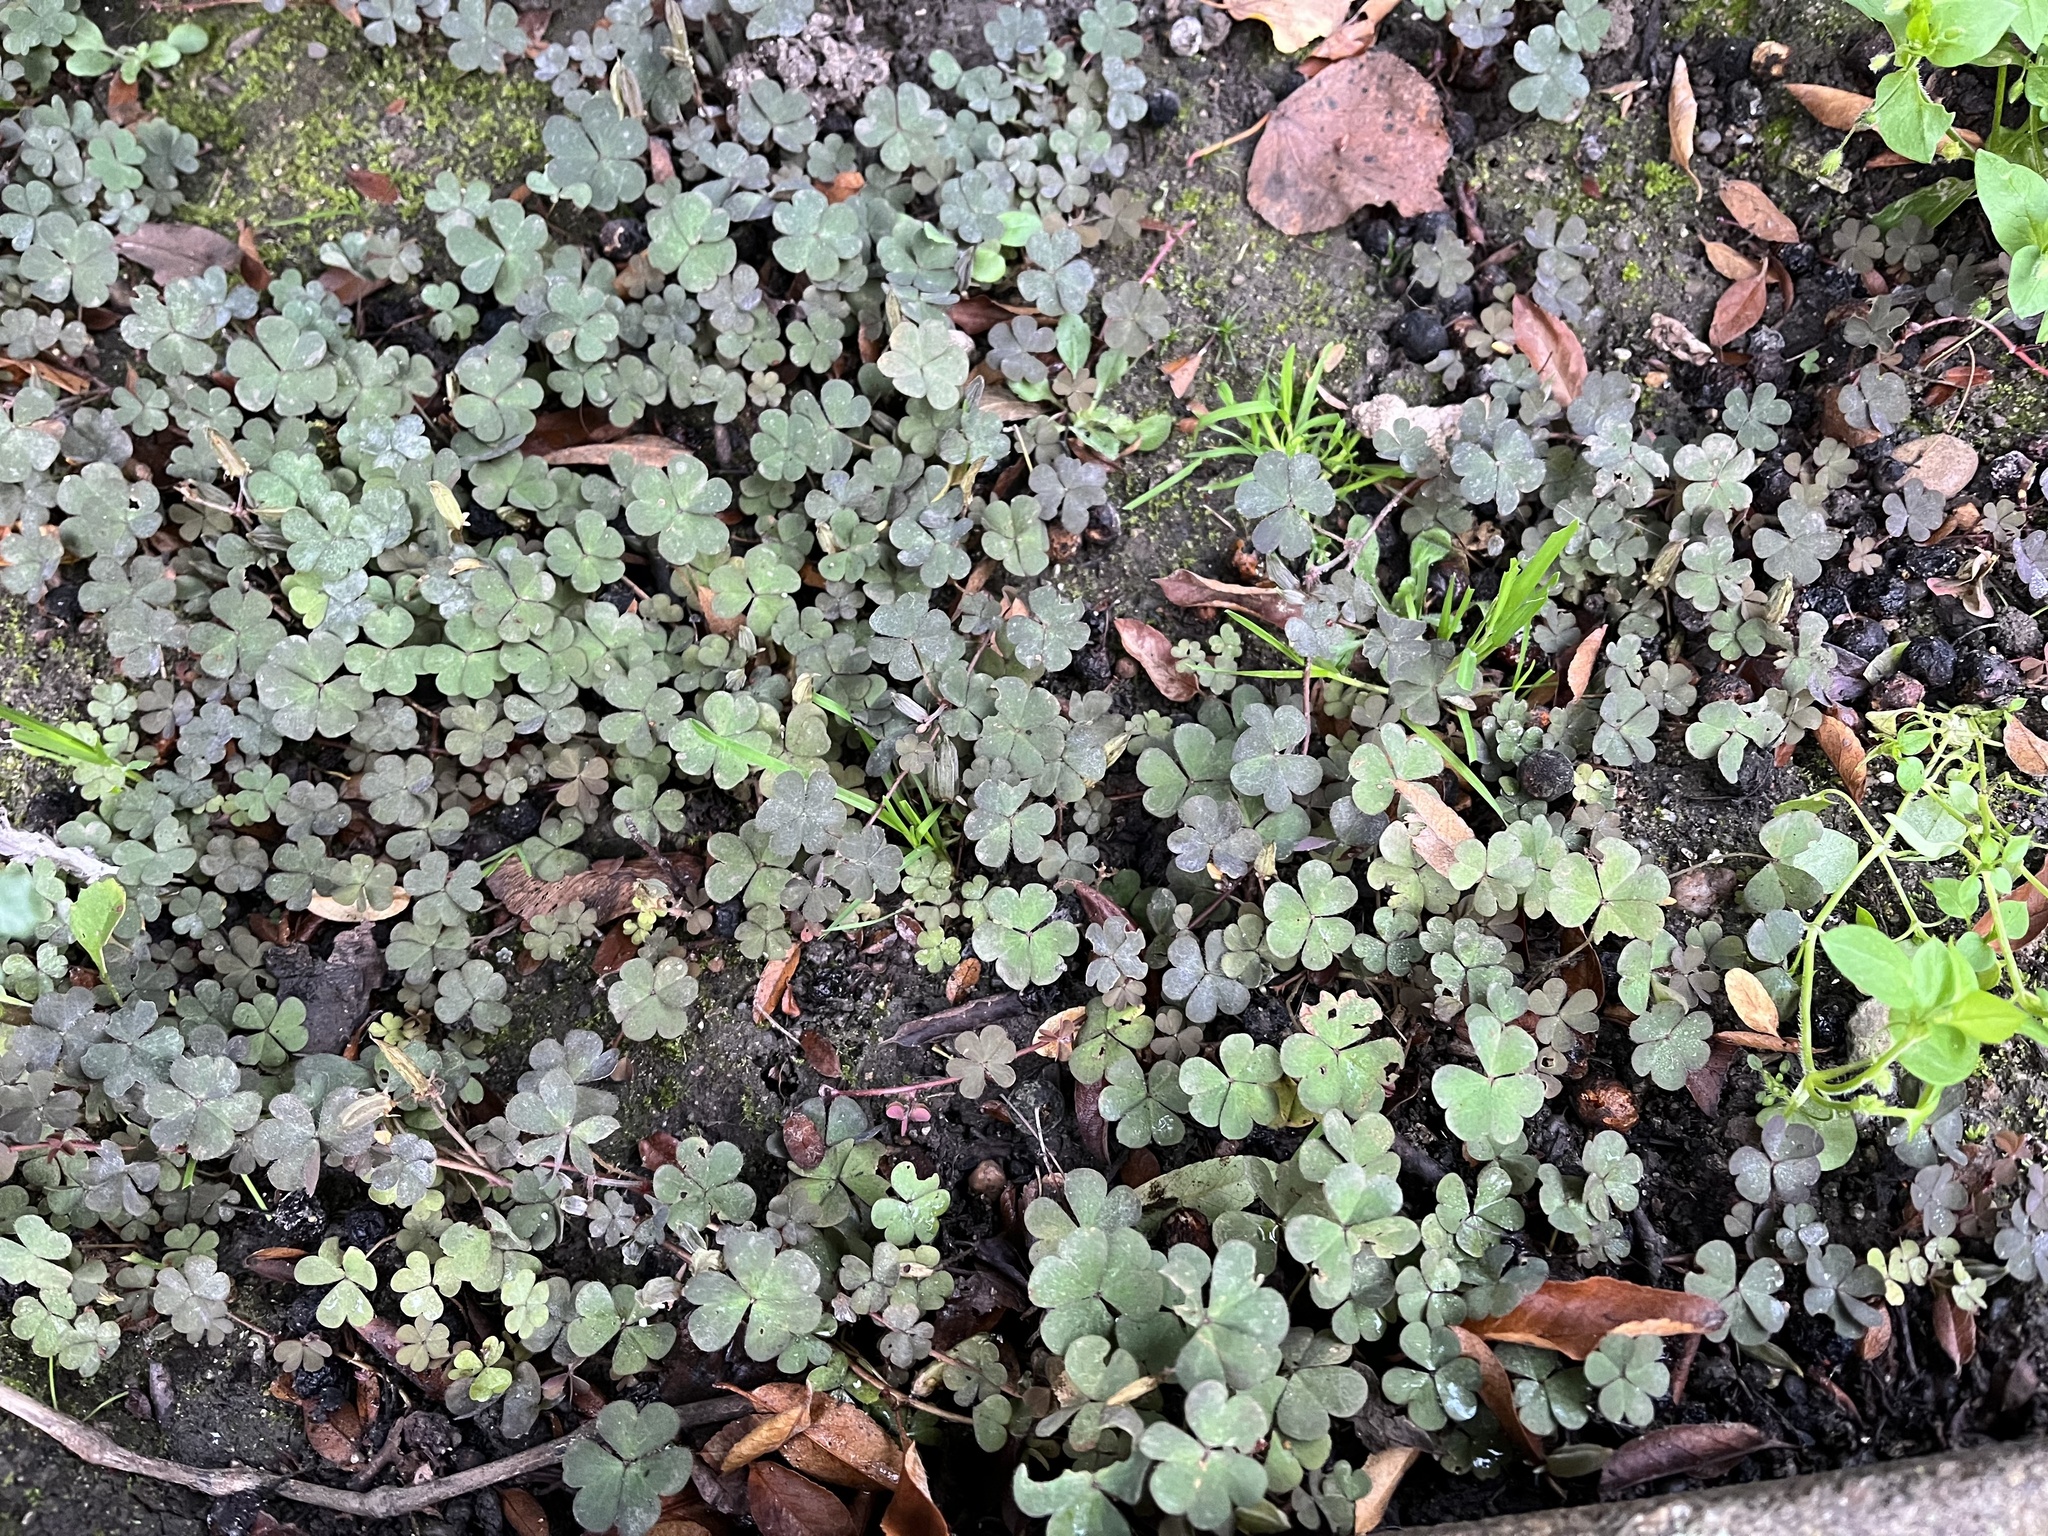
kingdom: Plantae
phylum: Tracheophyta
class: Magnoliopsida
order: Oxalidales
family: Oxalidaceae
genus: Oxalis
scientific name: Oxalis corniculata
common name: Procumbent yellow-sorrel
